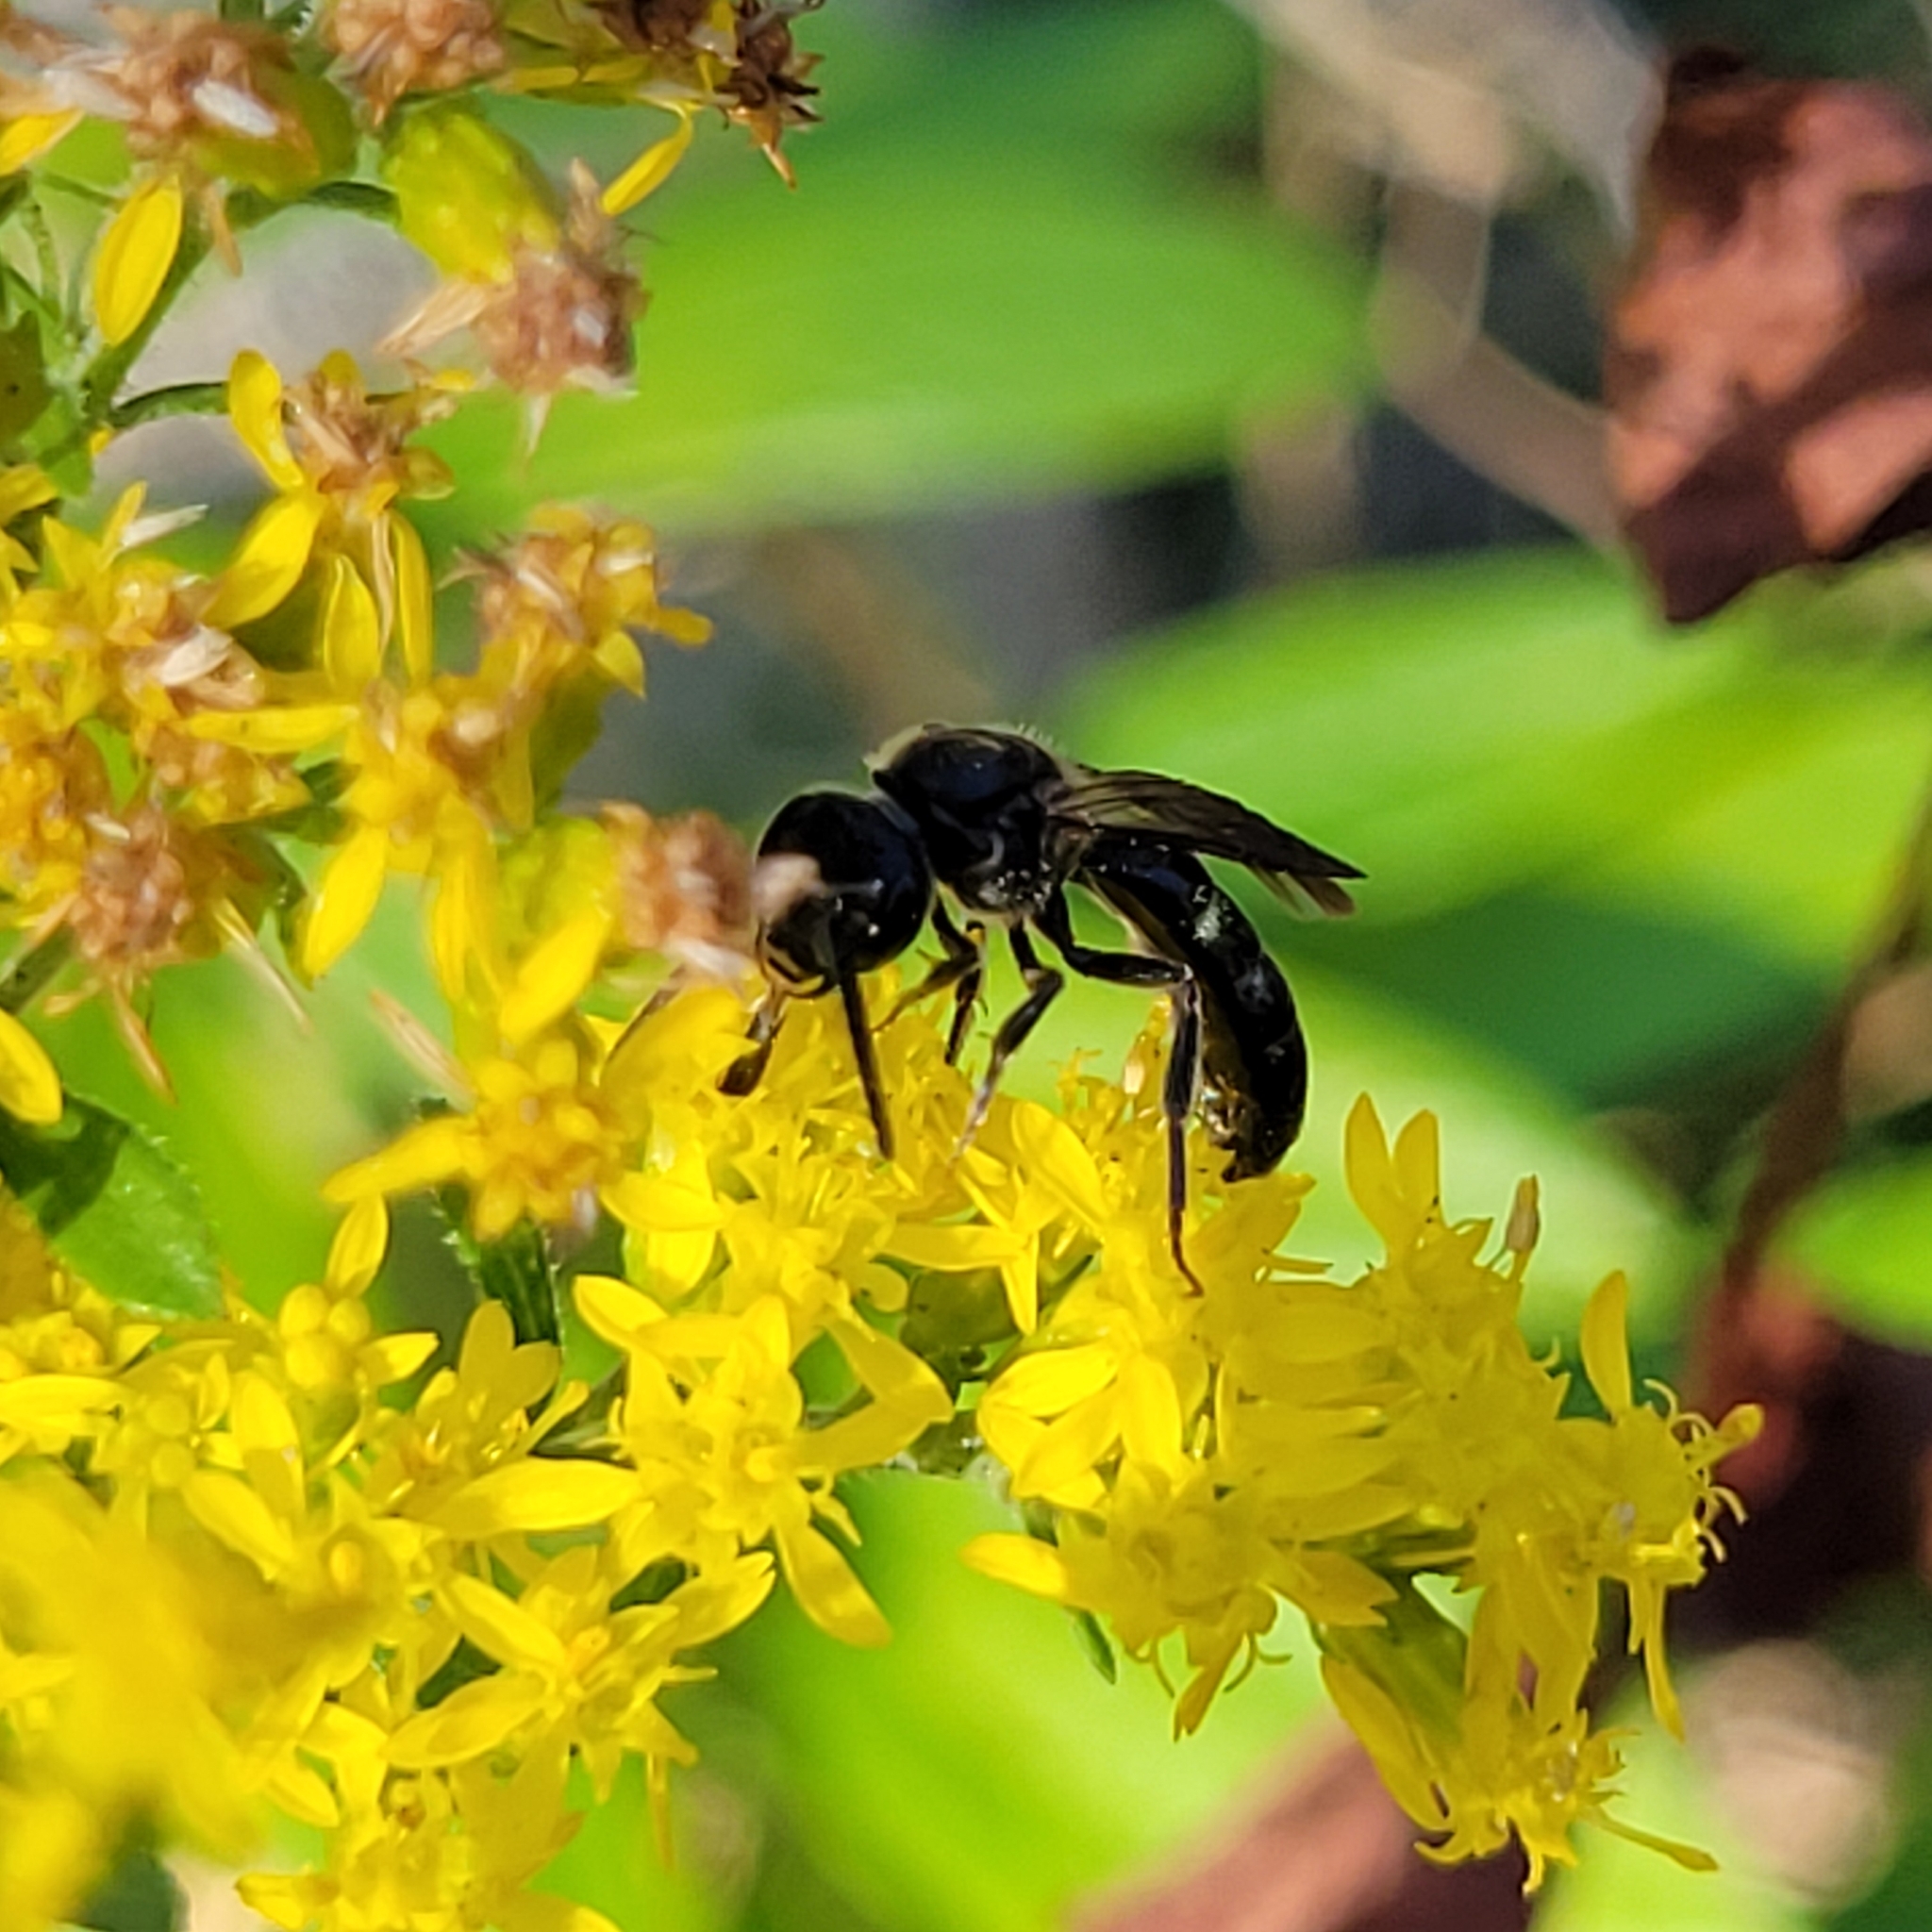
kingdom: Animalia
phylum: Arthropoda
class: Insecta
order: Hymenoptera
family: Halictidae
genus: Lasioglossum
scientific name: Lasioglossum fuscipenne
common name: Brown-winged sweat bee
